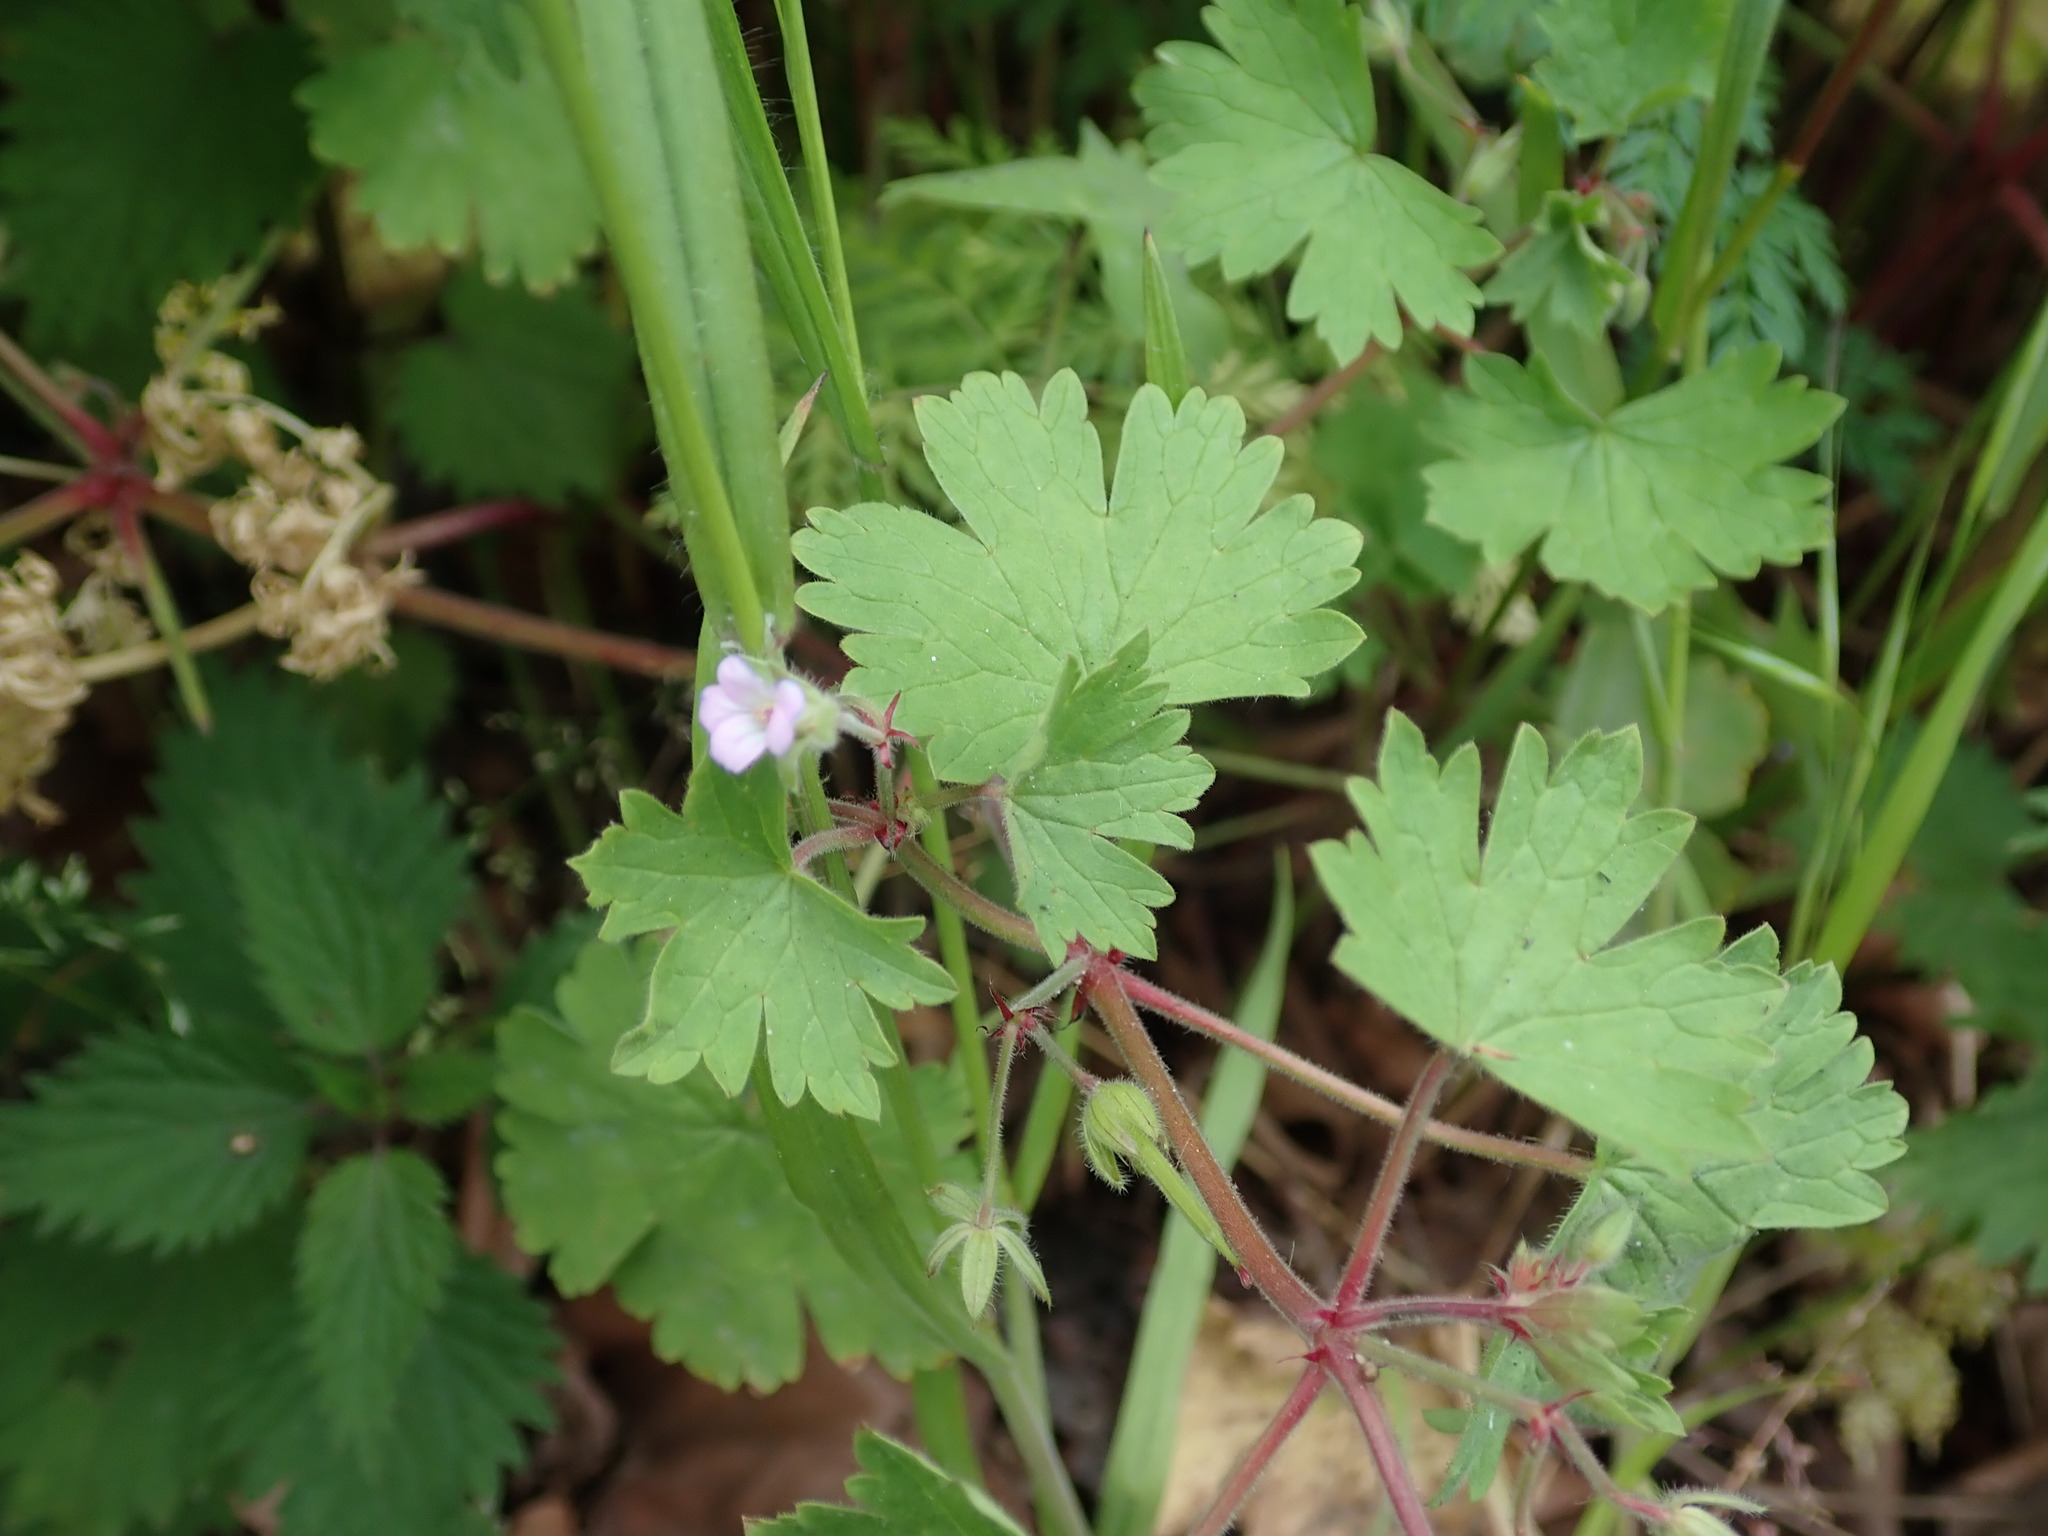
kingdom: Plantae
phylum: Tracheophyta
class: Magnoliopsida
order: Geraniales
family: Geraniaceae
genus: Geranium
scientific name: Geranium rotundifolium
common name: Round-leaved crane's-bill
